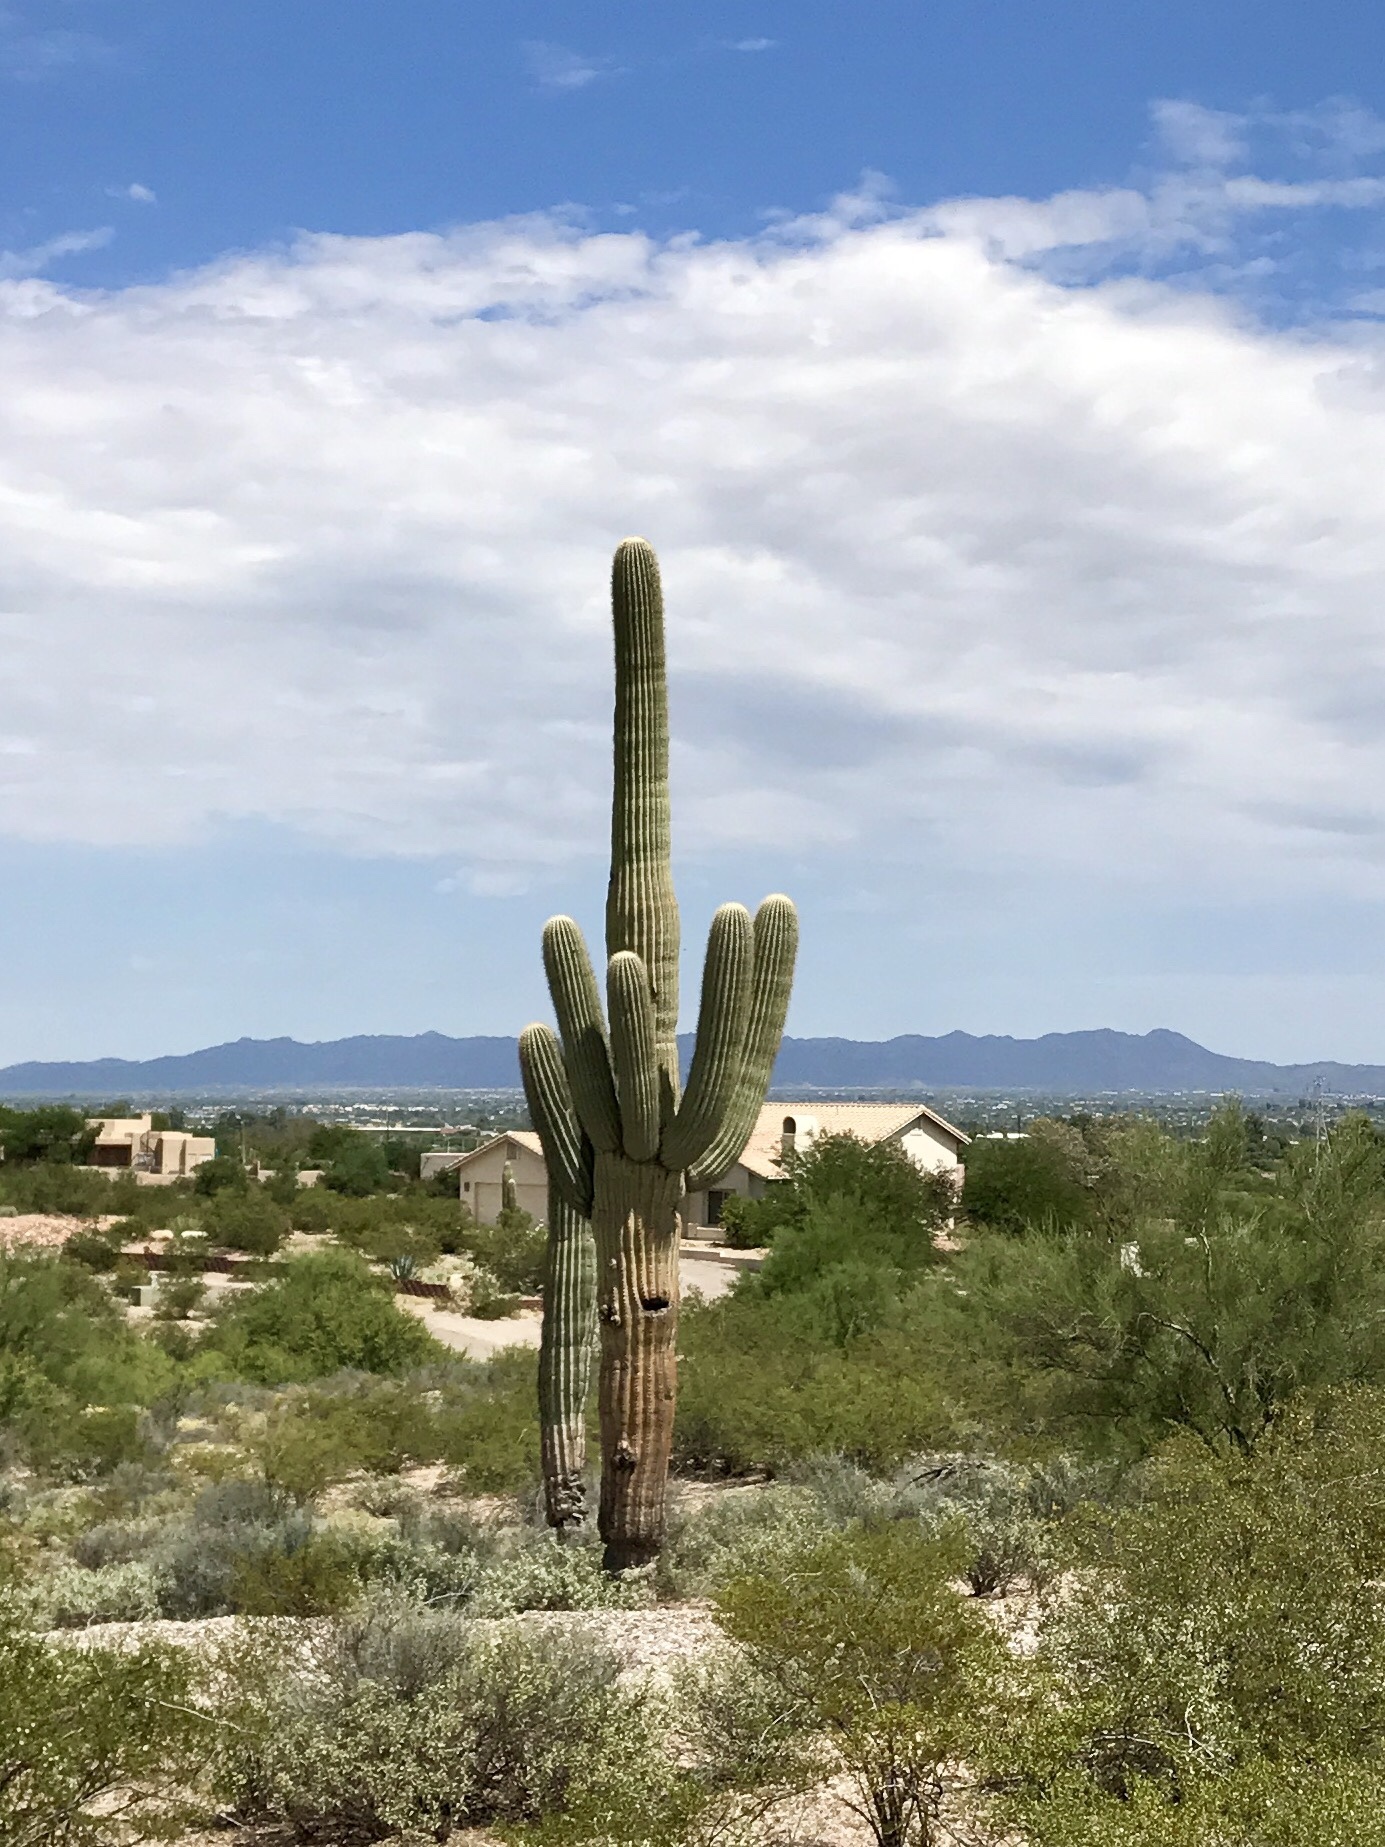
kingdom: Plantae
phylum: Tracheophyta
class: Magnoliopsida
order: Caryophyllales
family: Cactaceae
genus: Carnegiea
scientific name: Carnegiea gigantea
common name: Saguaro
